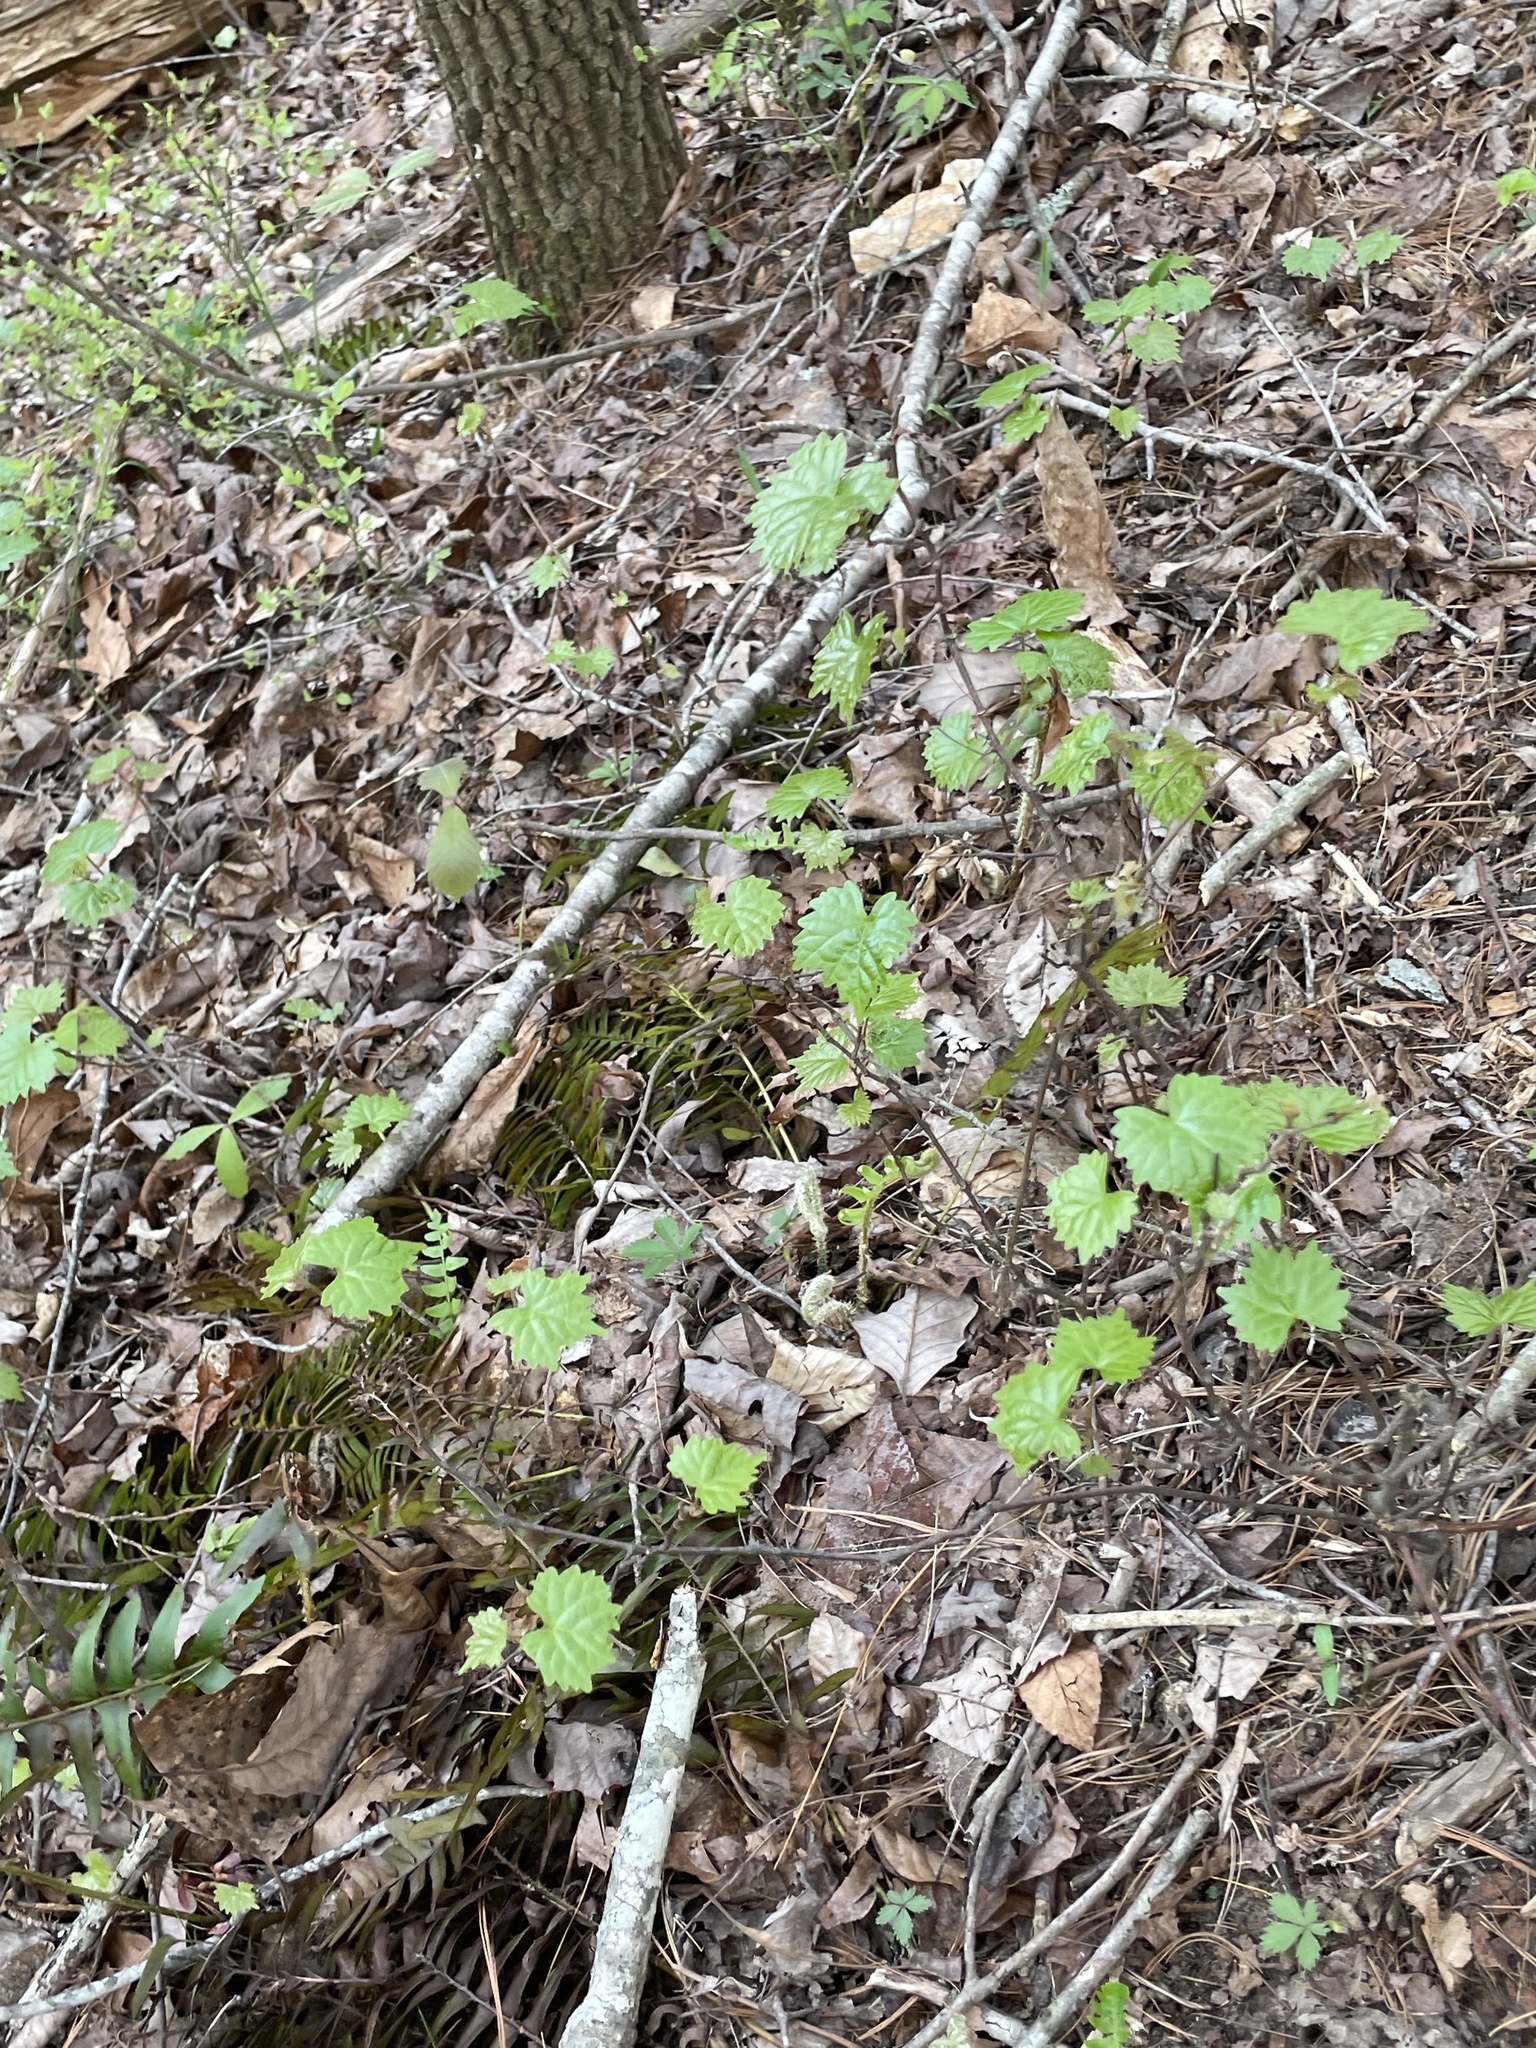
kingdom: Plantae
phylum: Tracheophyta
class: Magnoliopsida
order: Vitales
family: Vitaceae
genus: Vitis
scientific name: Vitis rotundifolia
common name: Muscadine grape
